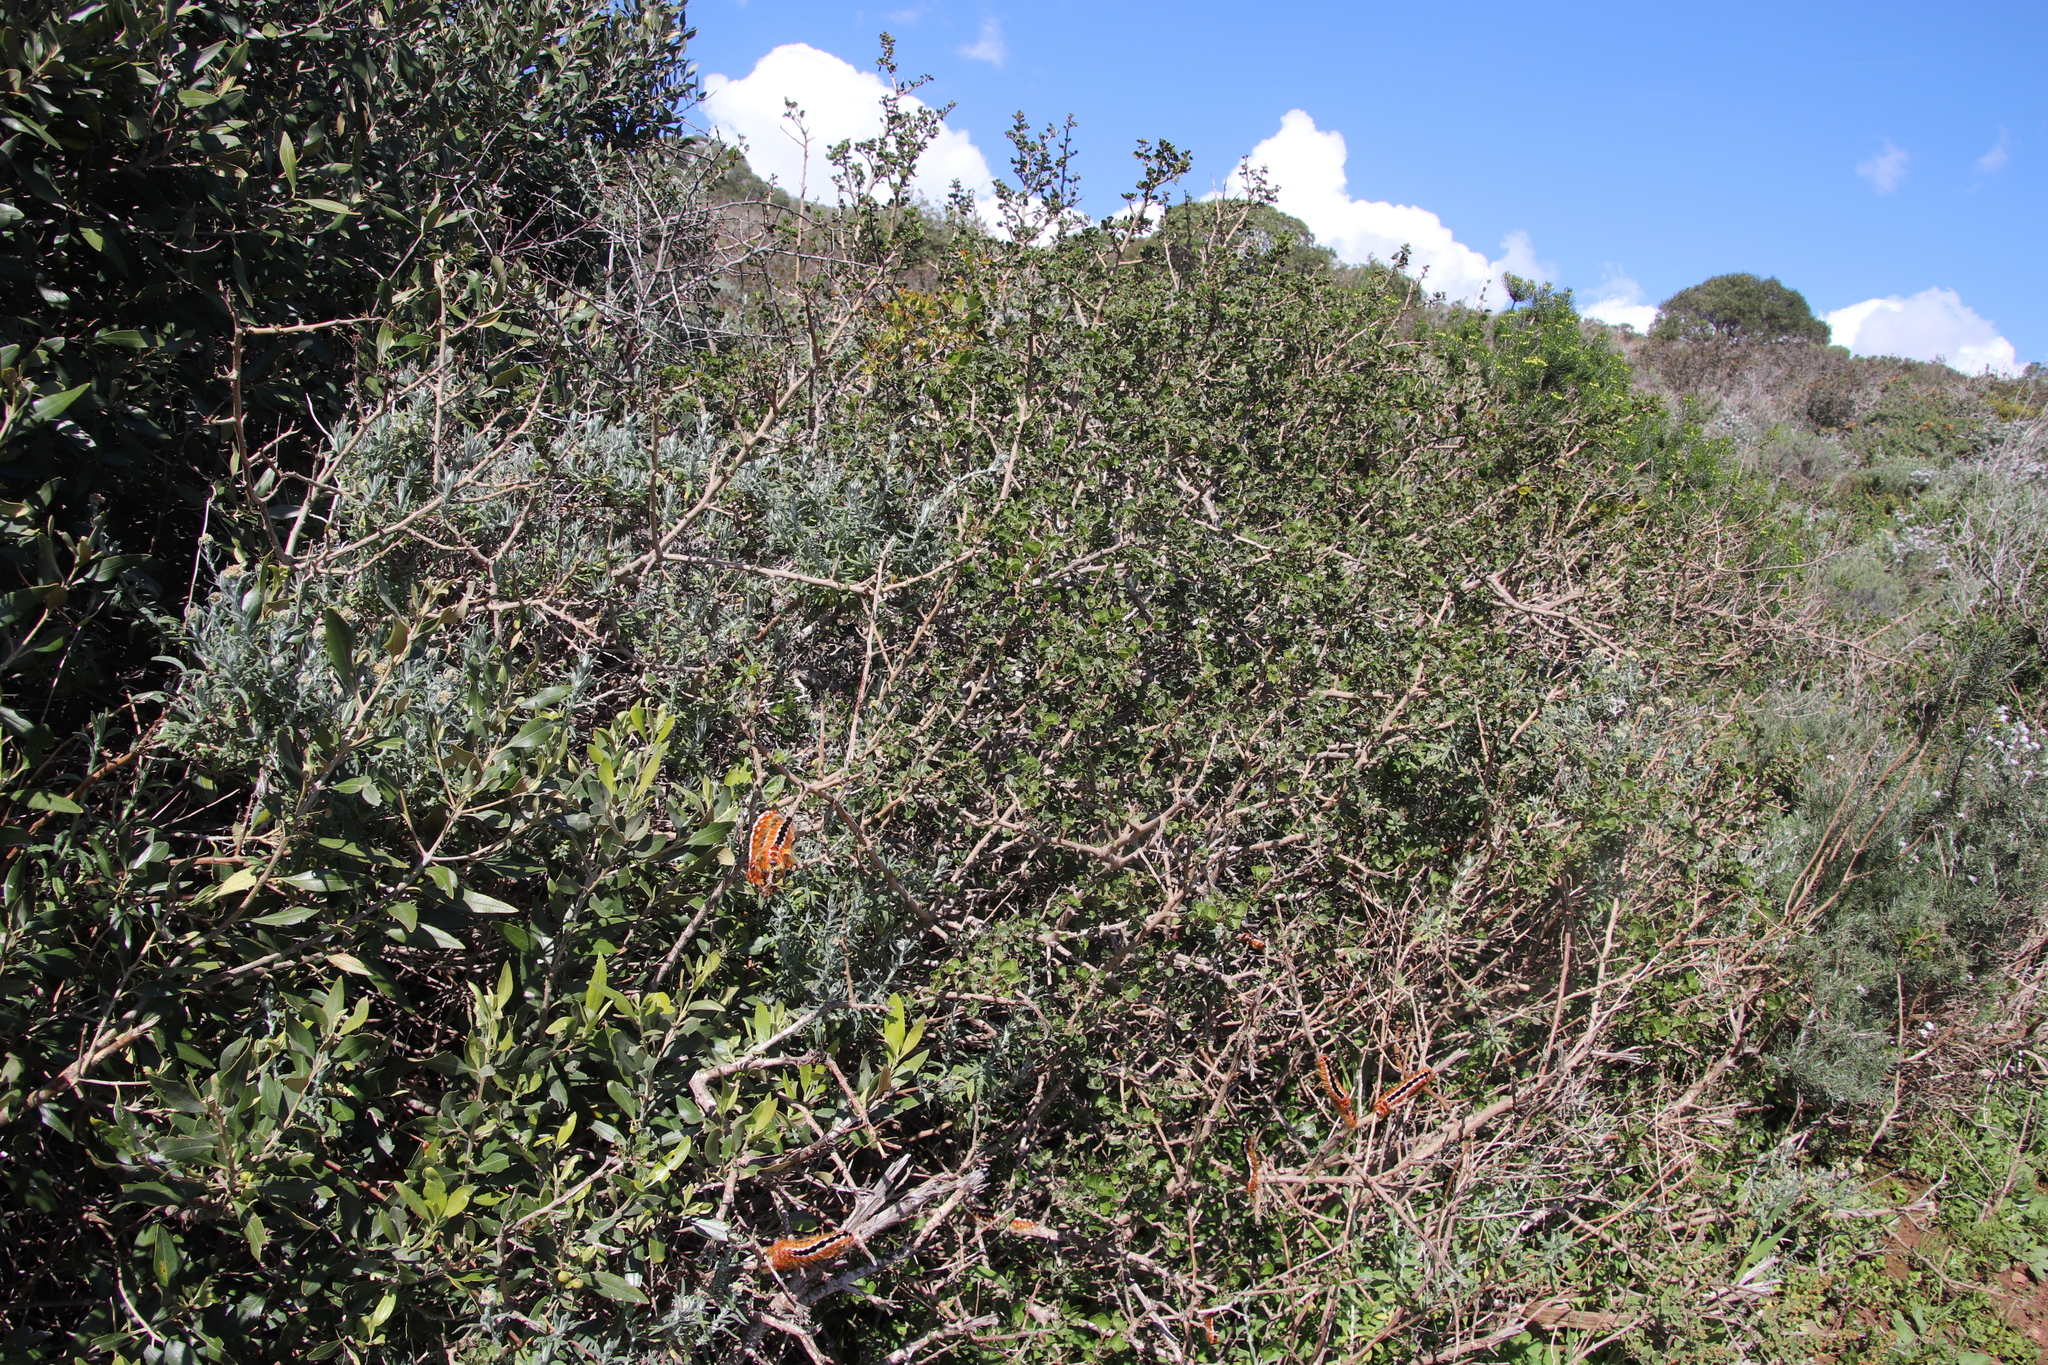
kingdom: Plantae
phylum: Tracheophyta
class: Magnoliopsida
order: Sapindales
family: Anacardiaceae
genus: Searsia
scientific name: Searsia glauca
